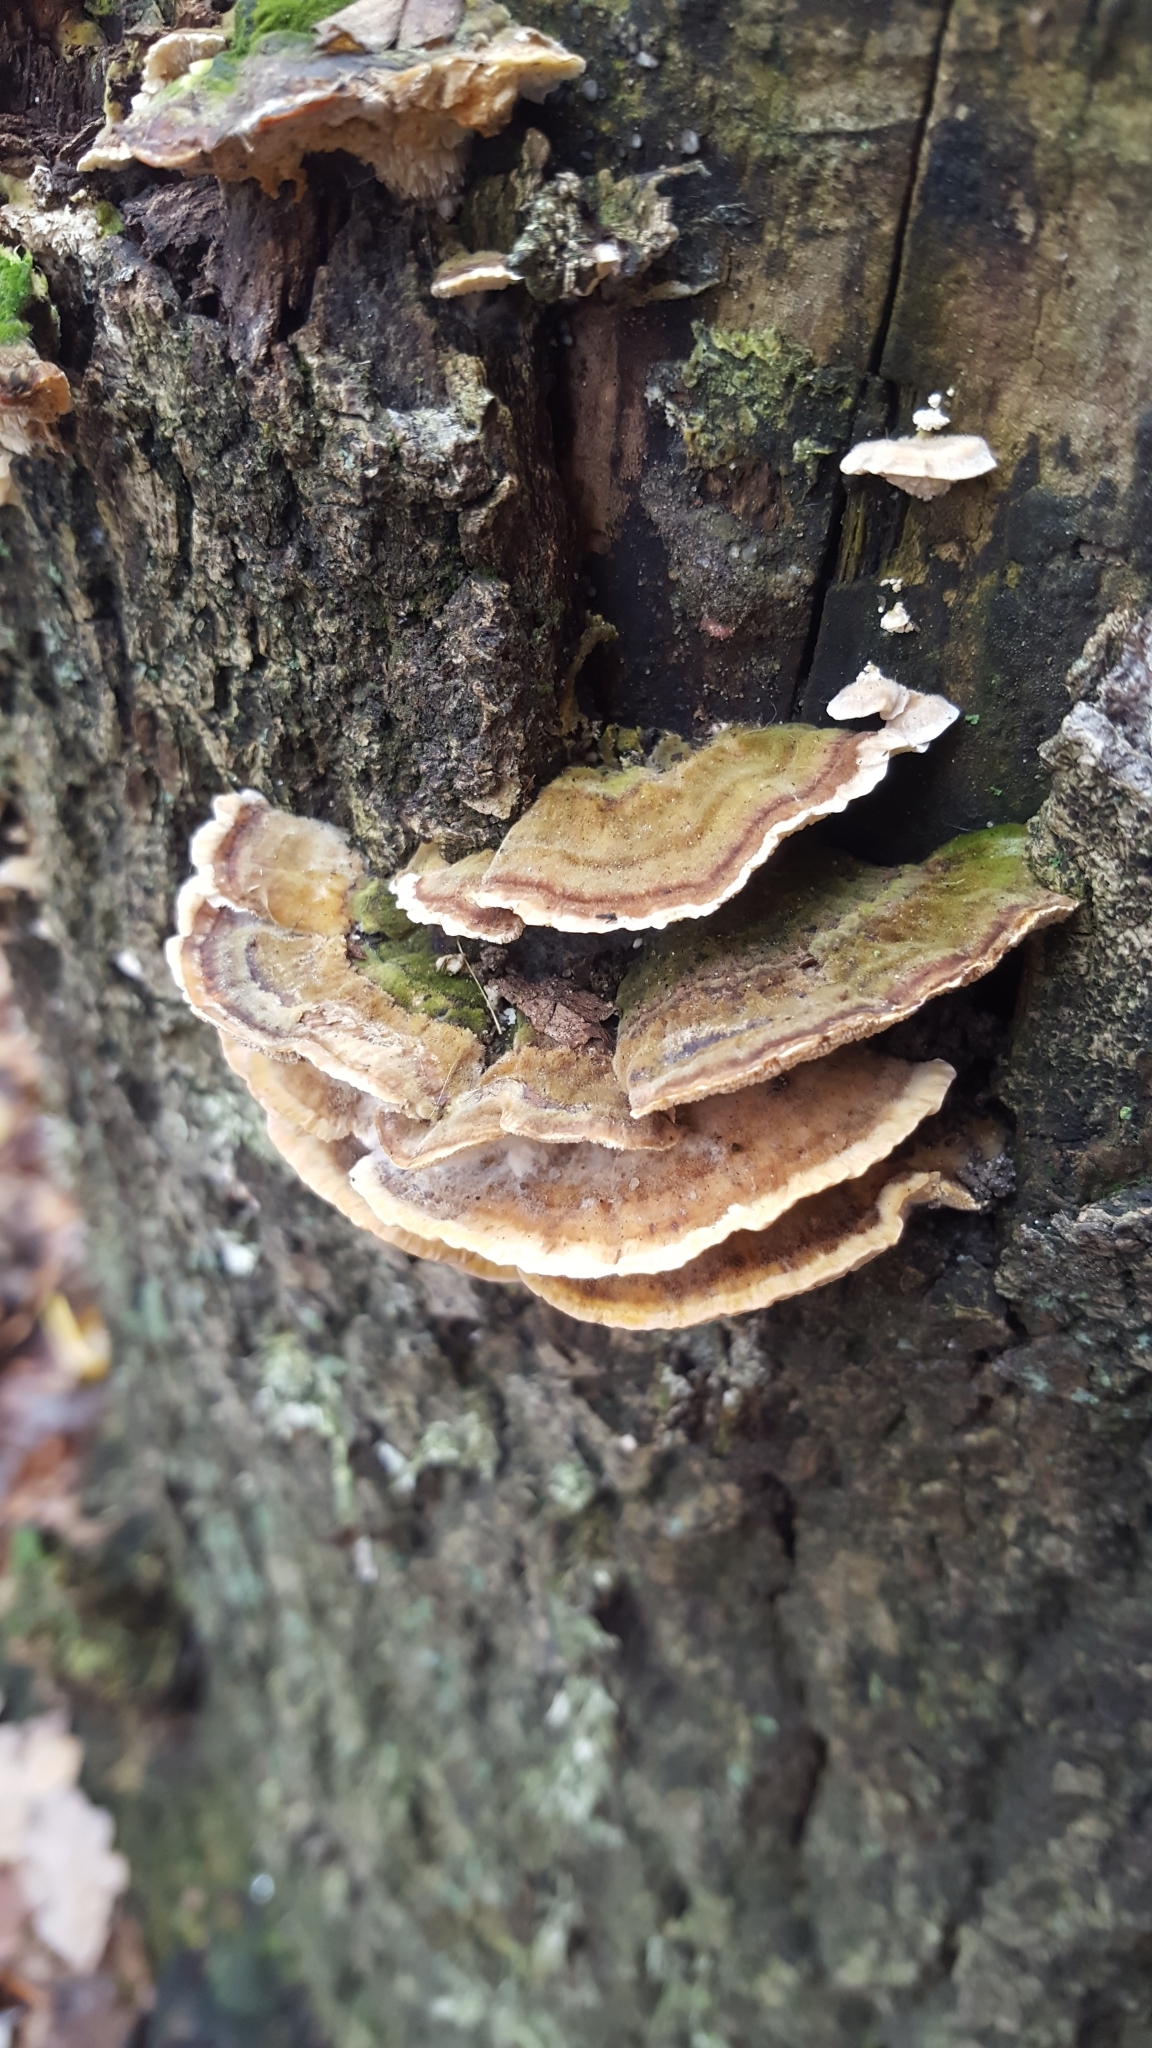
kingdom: Fungi
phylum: Basidiomycota
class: Agaricomycetes
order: Polyporales
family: Polyporaceae
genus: Trametes
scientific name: Trametes versicolor
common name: Turkeytail
